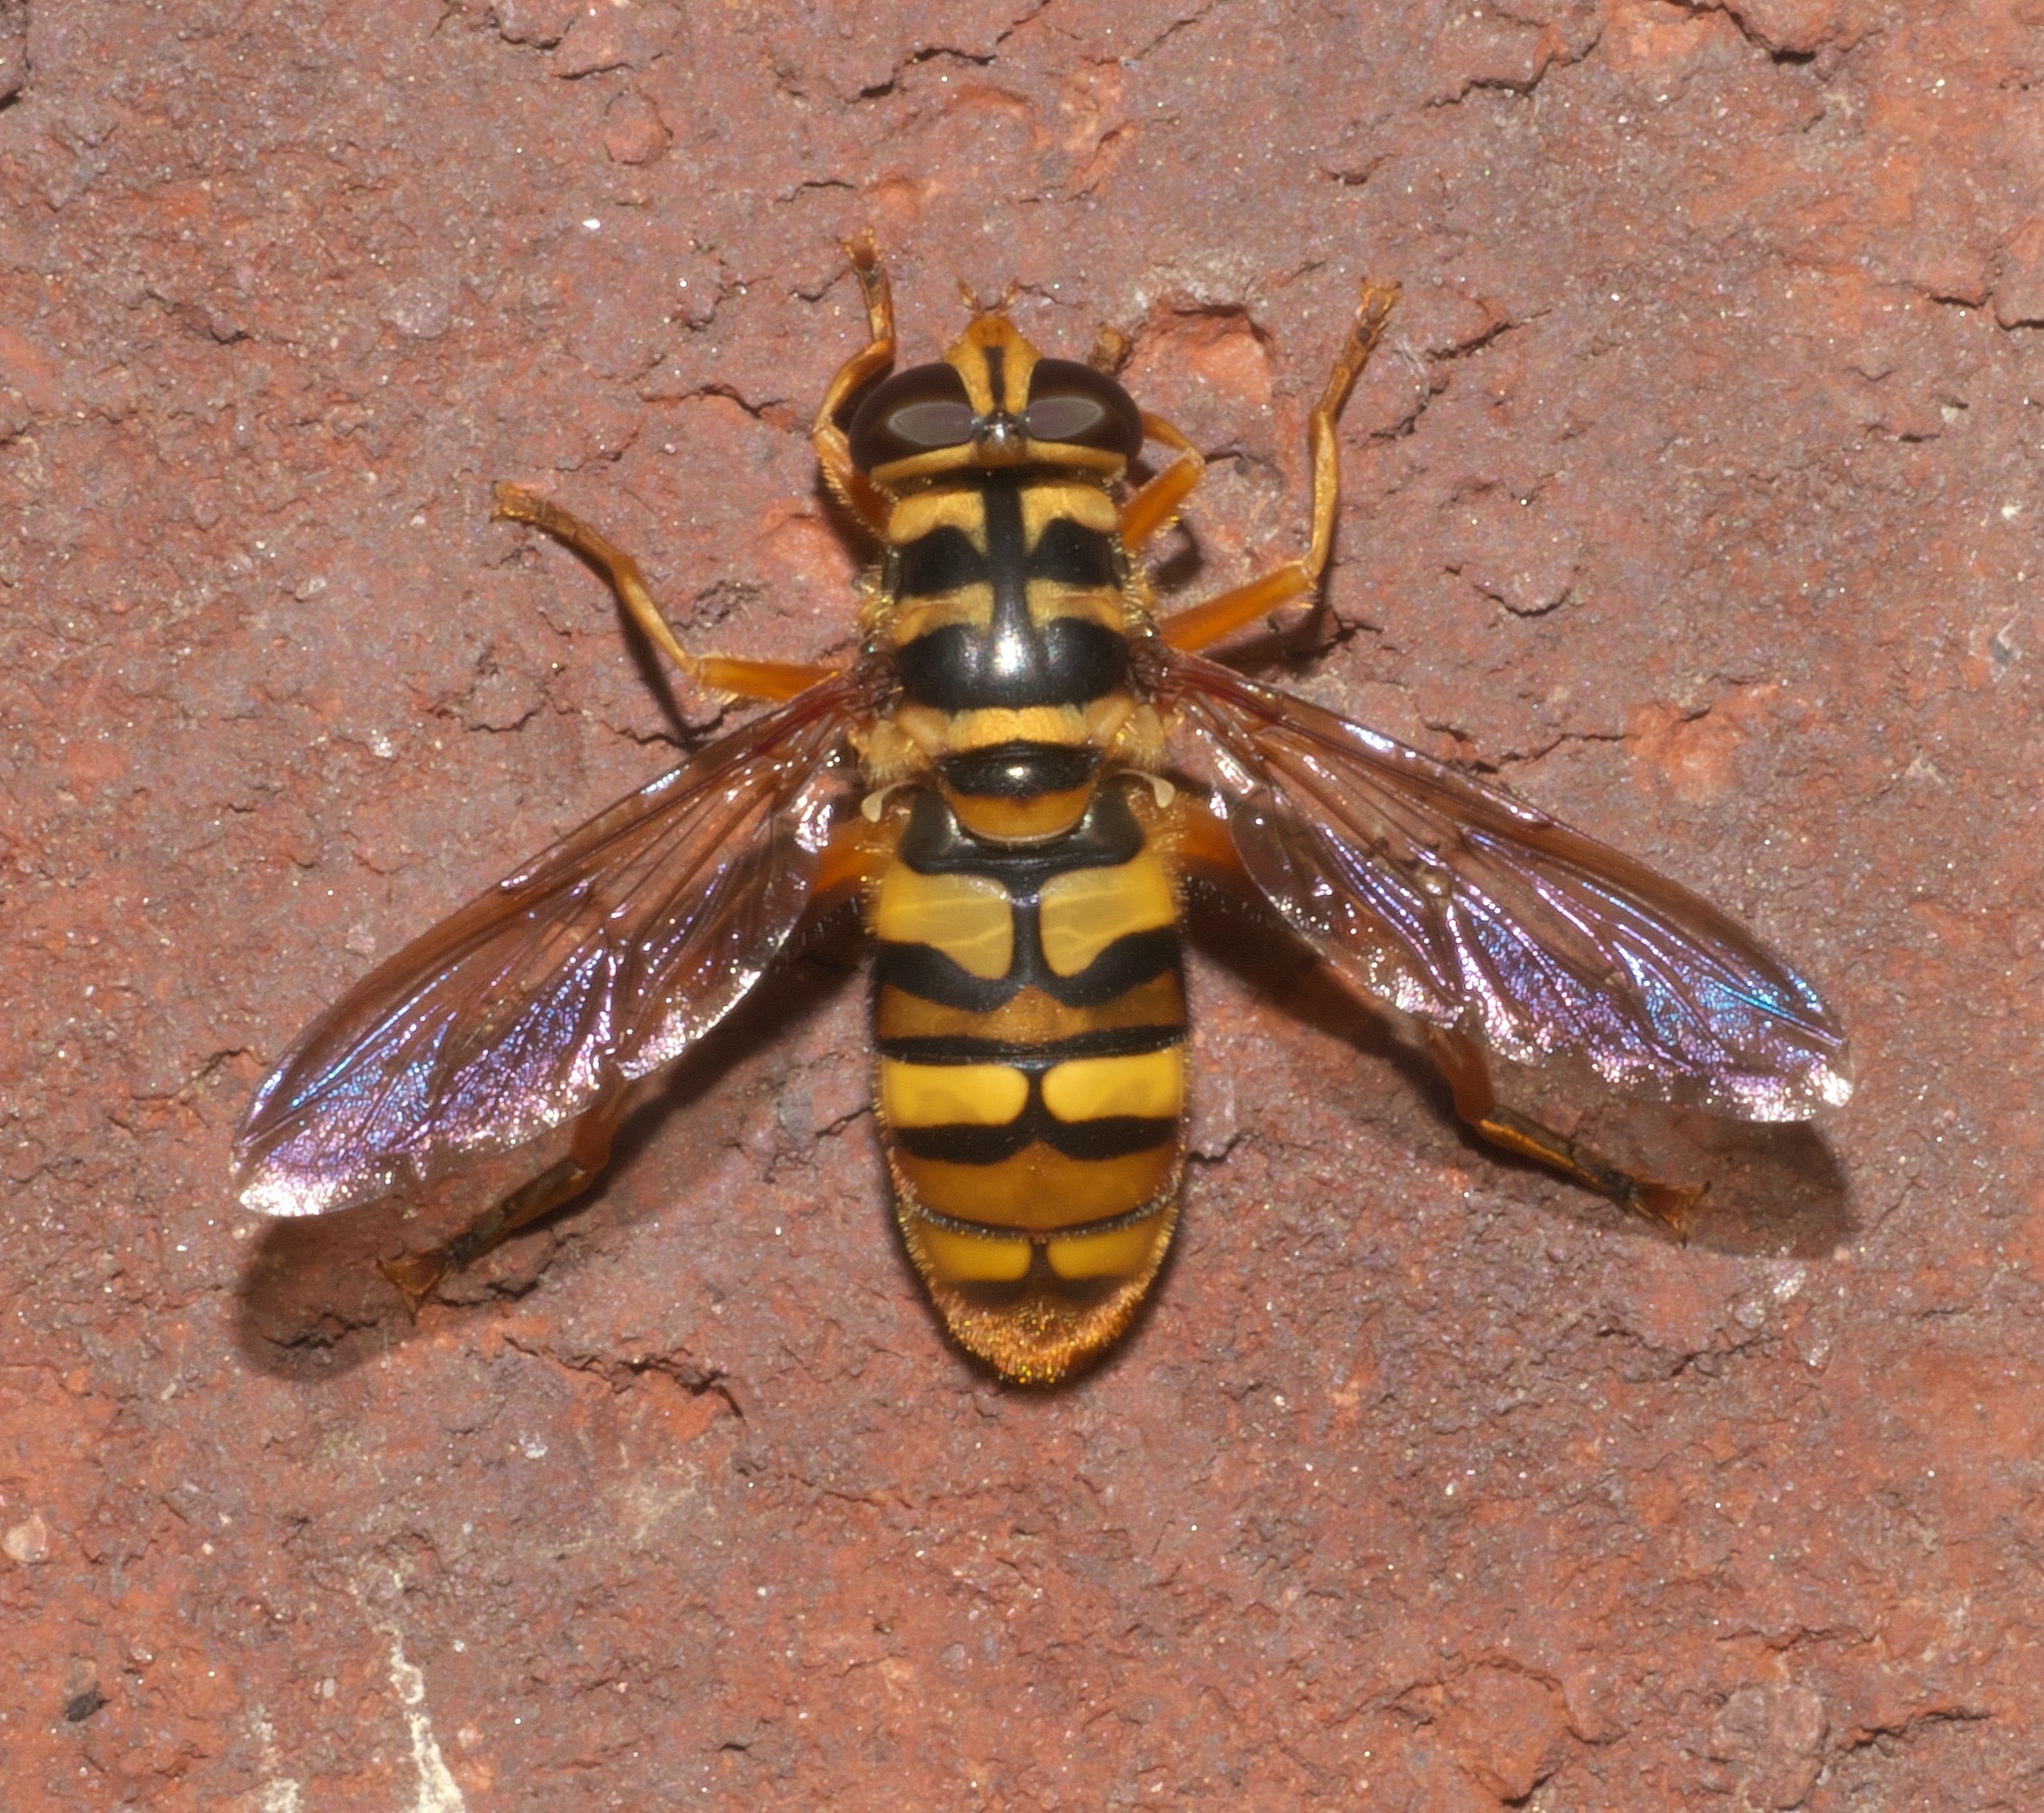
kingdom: Animalia
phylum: Arthropoda
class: Insecta
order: Diptera
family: Syrphidae
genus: Milesia
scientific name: Milesia virginiensis
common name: Virginia giant
